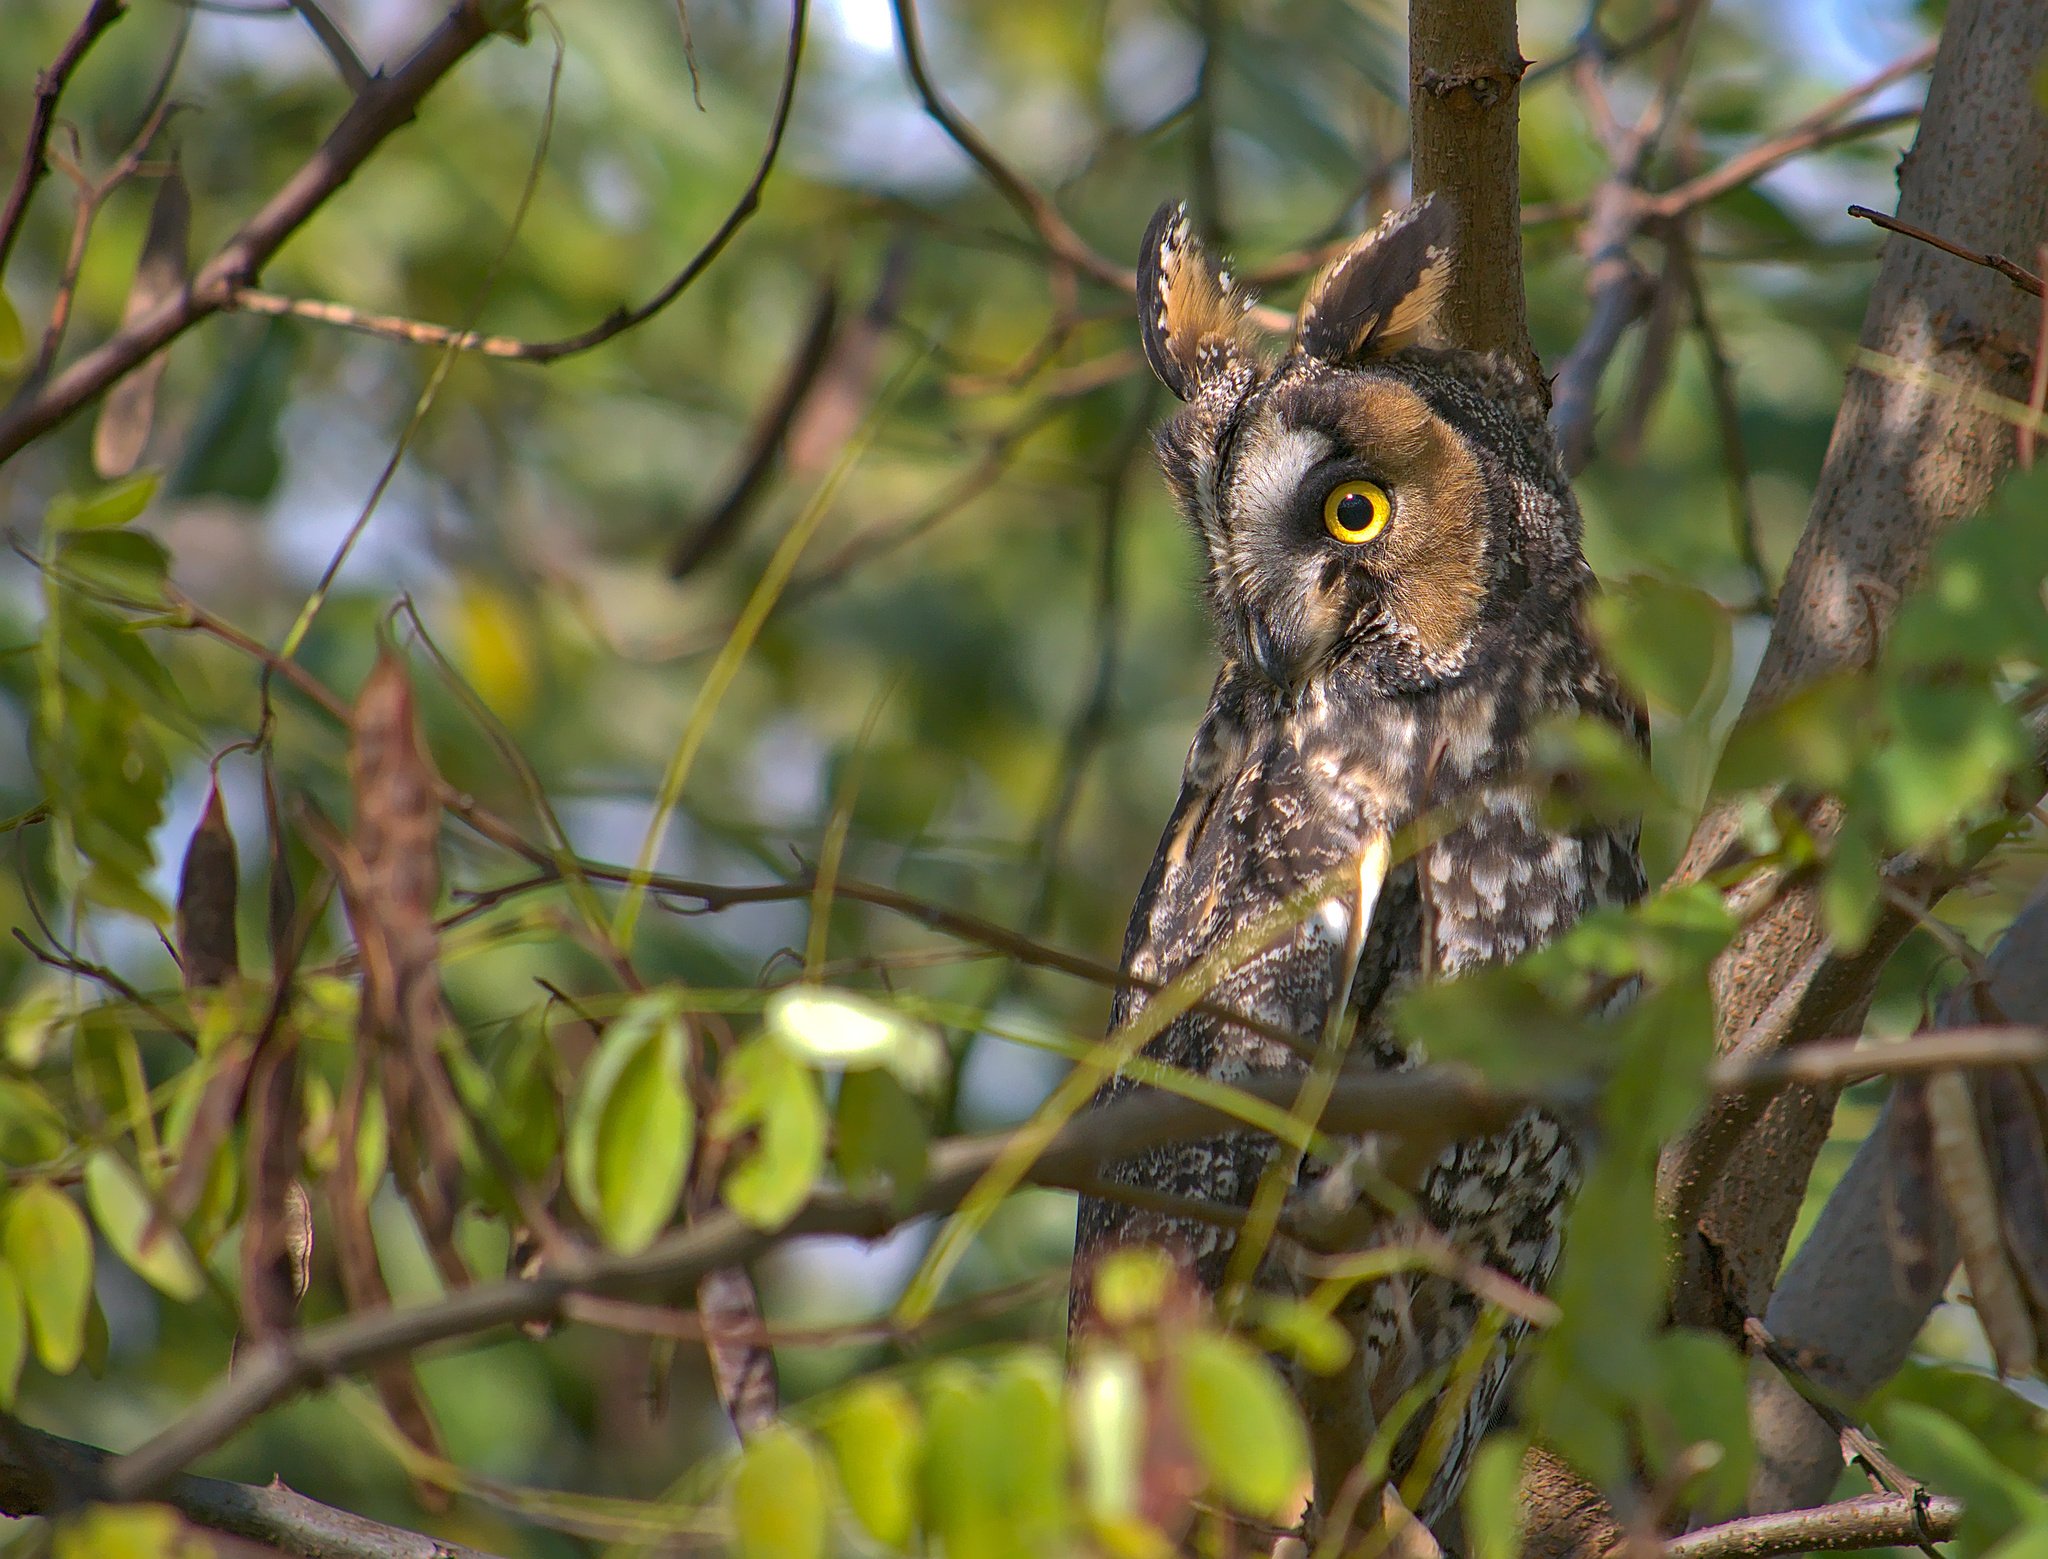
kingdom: Animalia
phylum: Chordata
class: Aves
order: Strigiformes
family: Strigidae
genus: Asio
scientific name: Asio otus
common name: Long-eared owl
